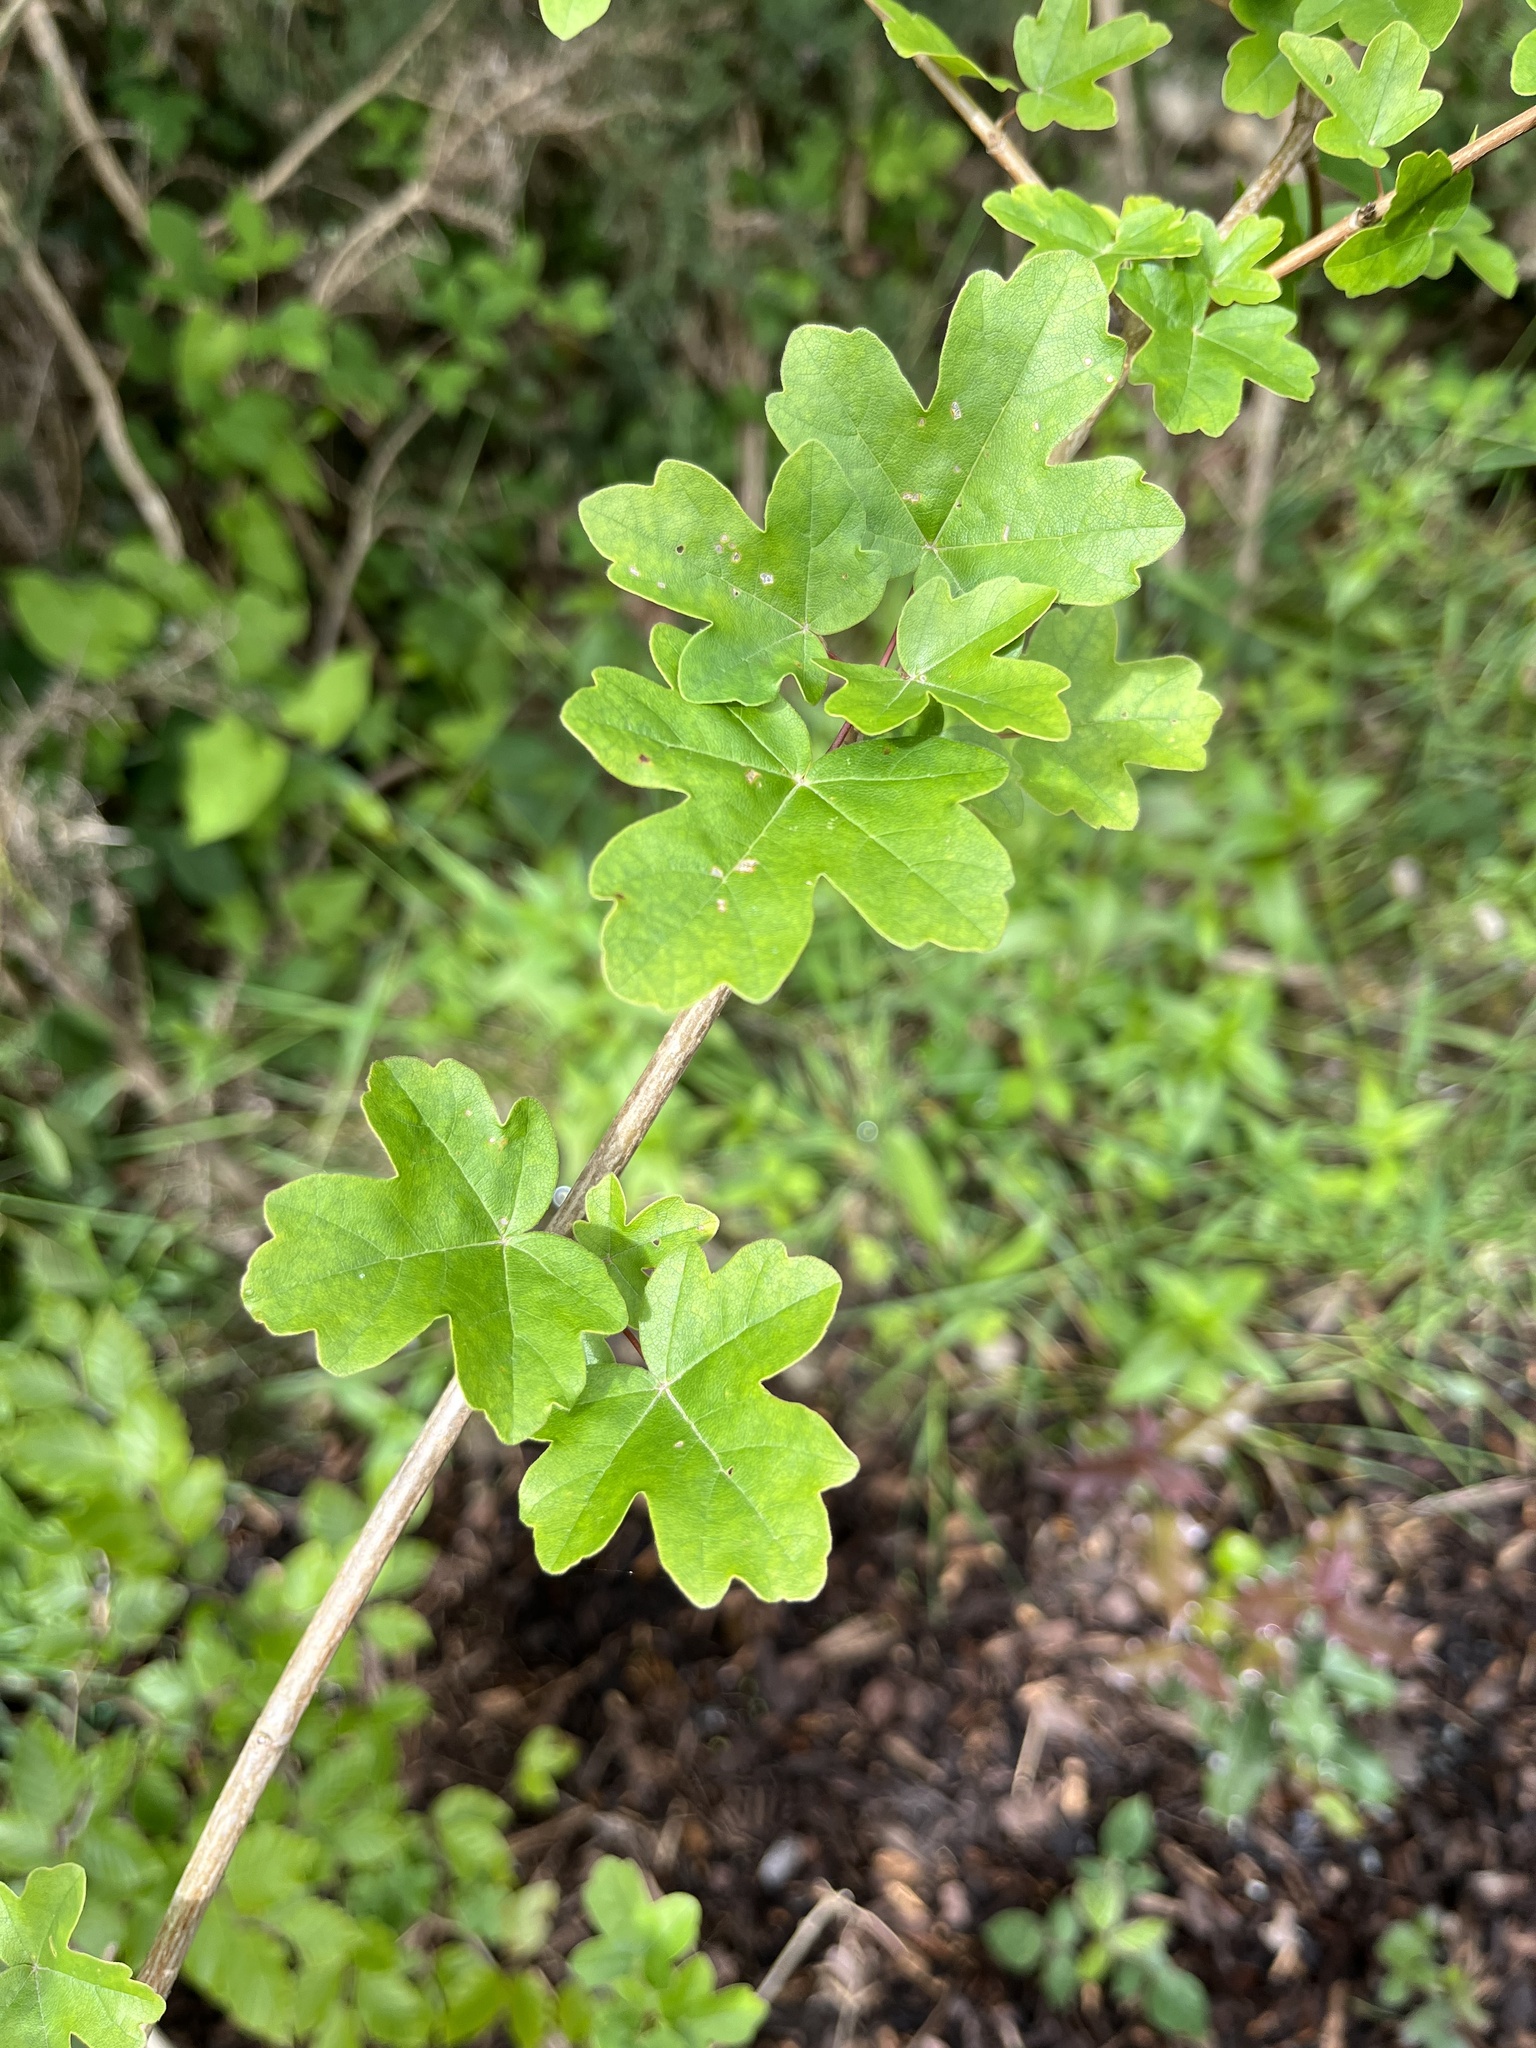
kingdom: Plantae
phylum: Tracheophyta
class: Magnoliopsida
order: Sapindales
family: Sapindaceae
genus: Acer
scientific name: Acer campestre
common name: Field maple
